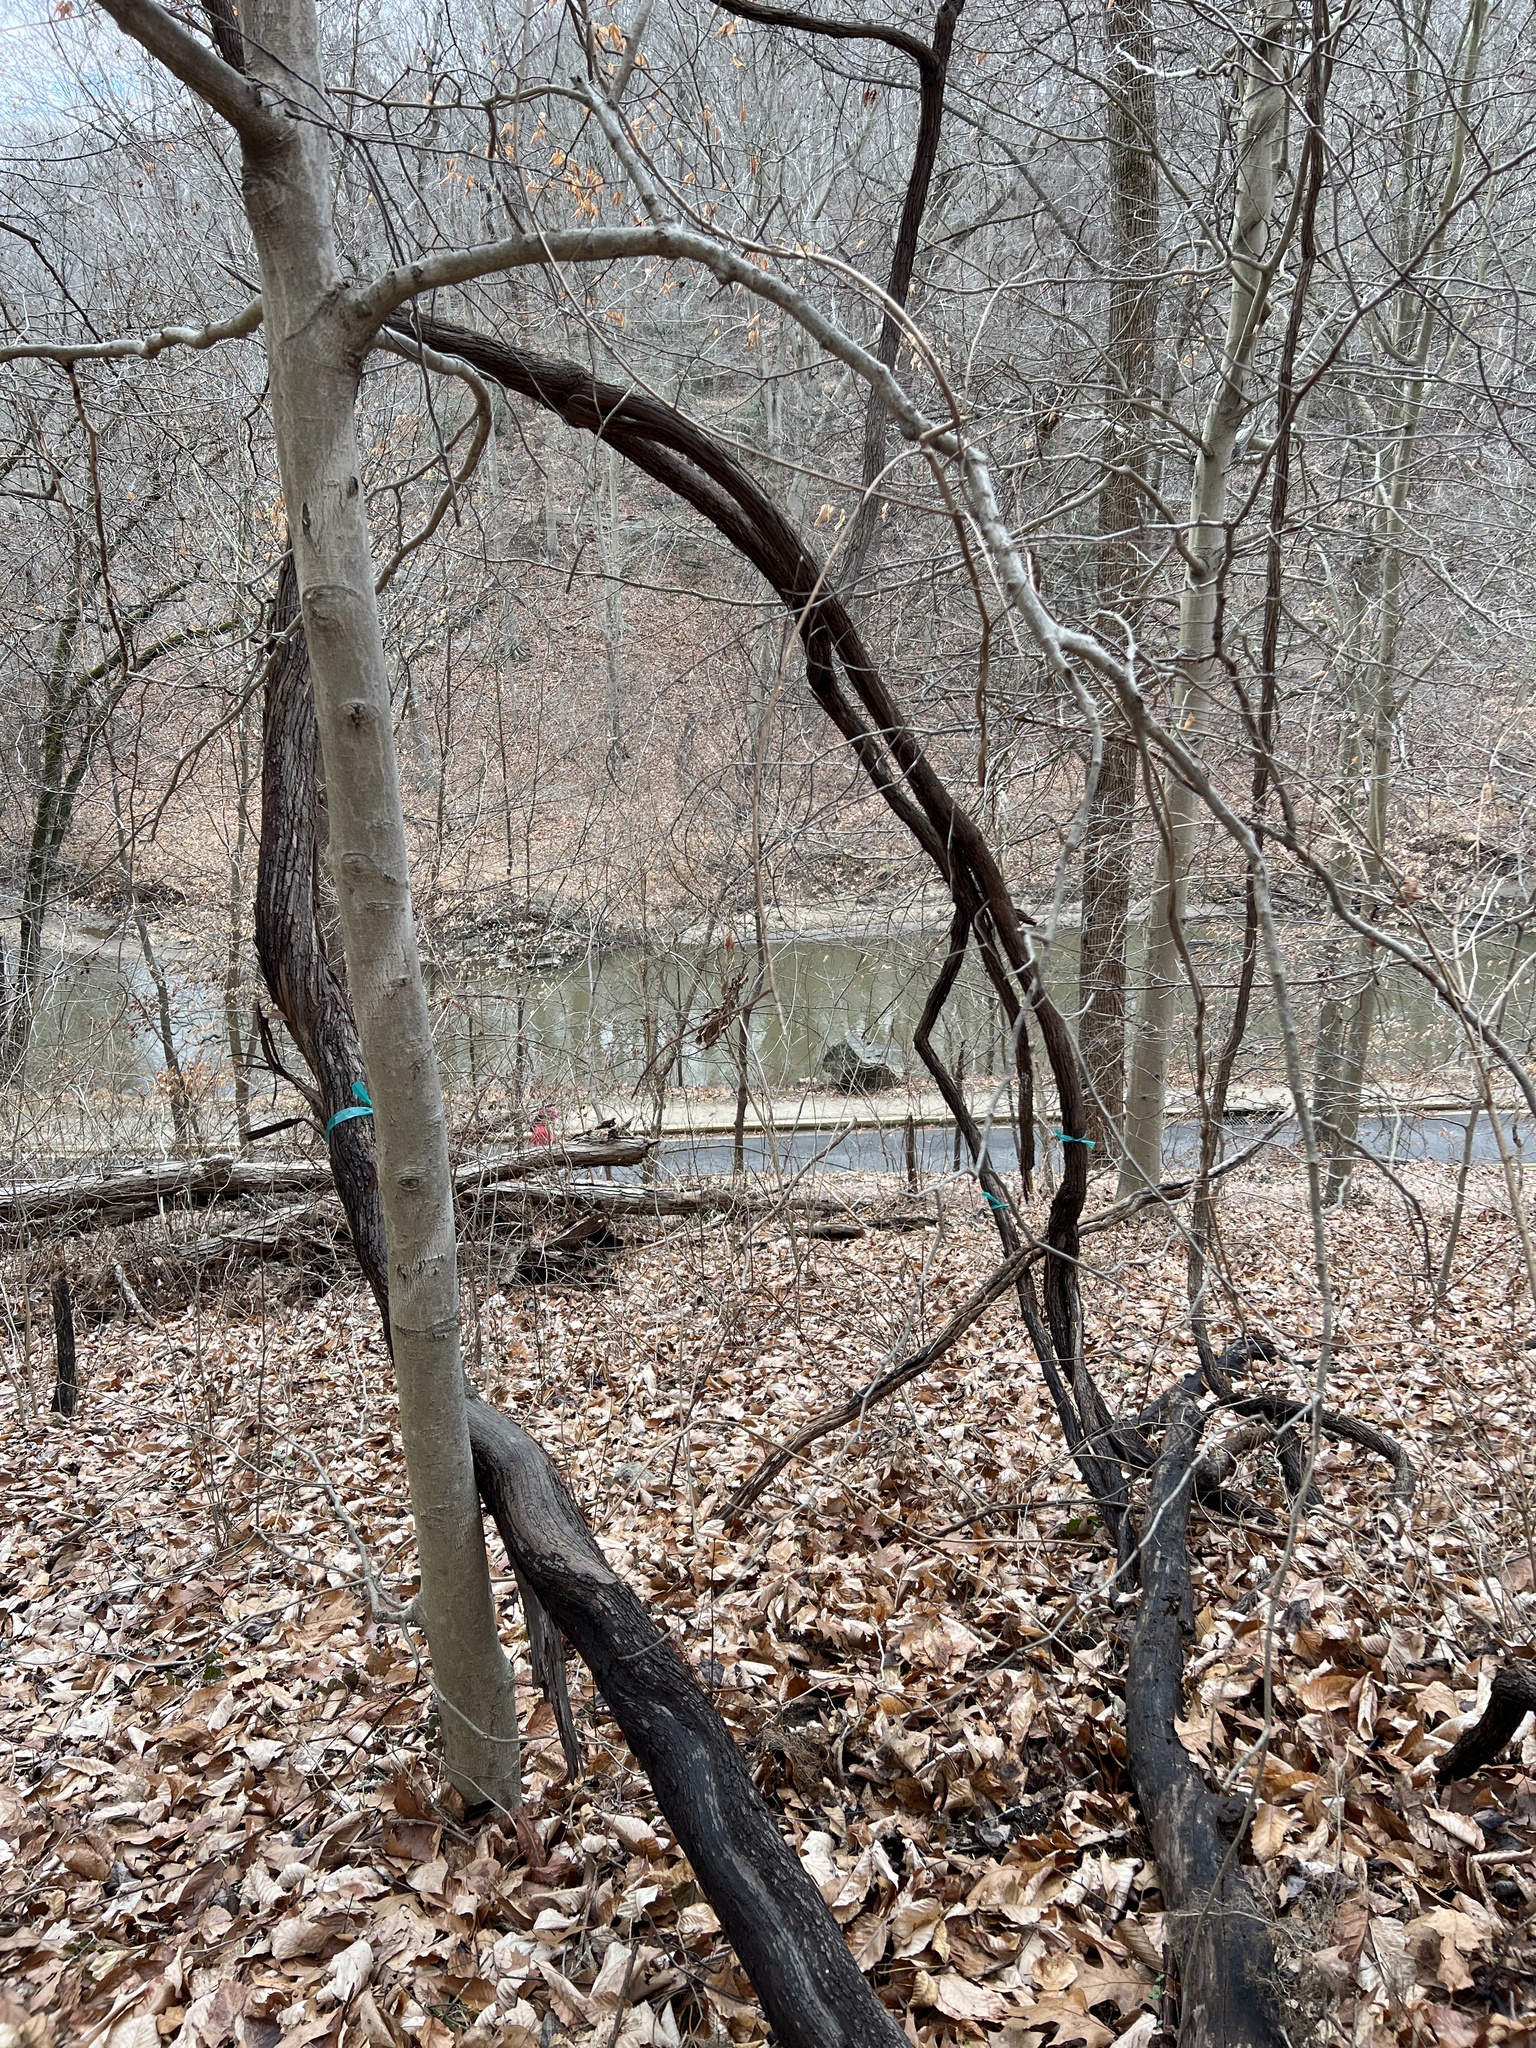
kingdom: Plantae
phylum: Tracheophyta
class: Magnoliopsida
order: Vitales
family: Vitaceae
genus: Vitis
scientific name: Vitis
